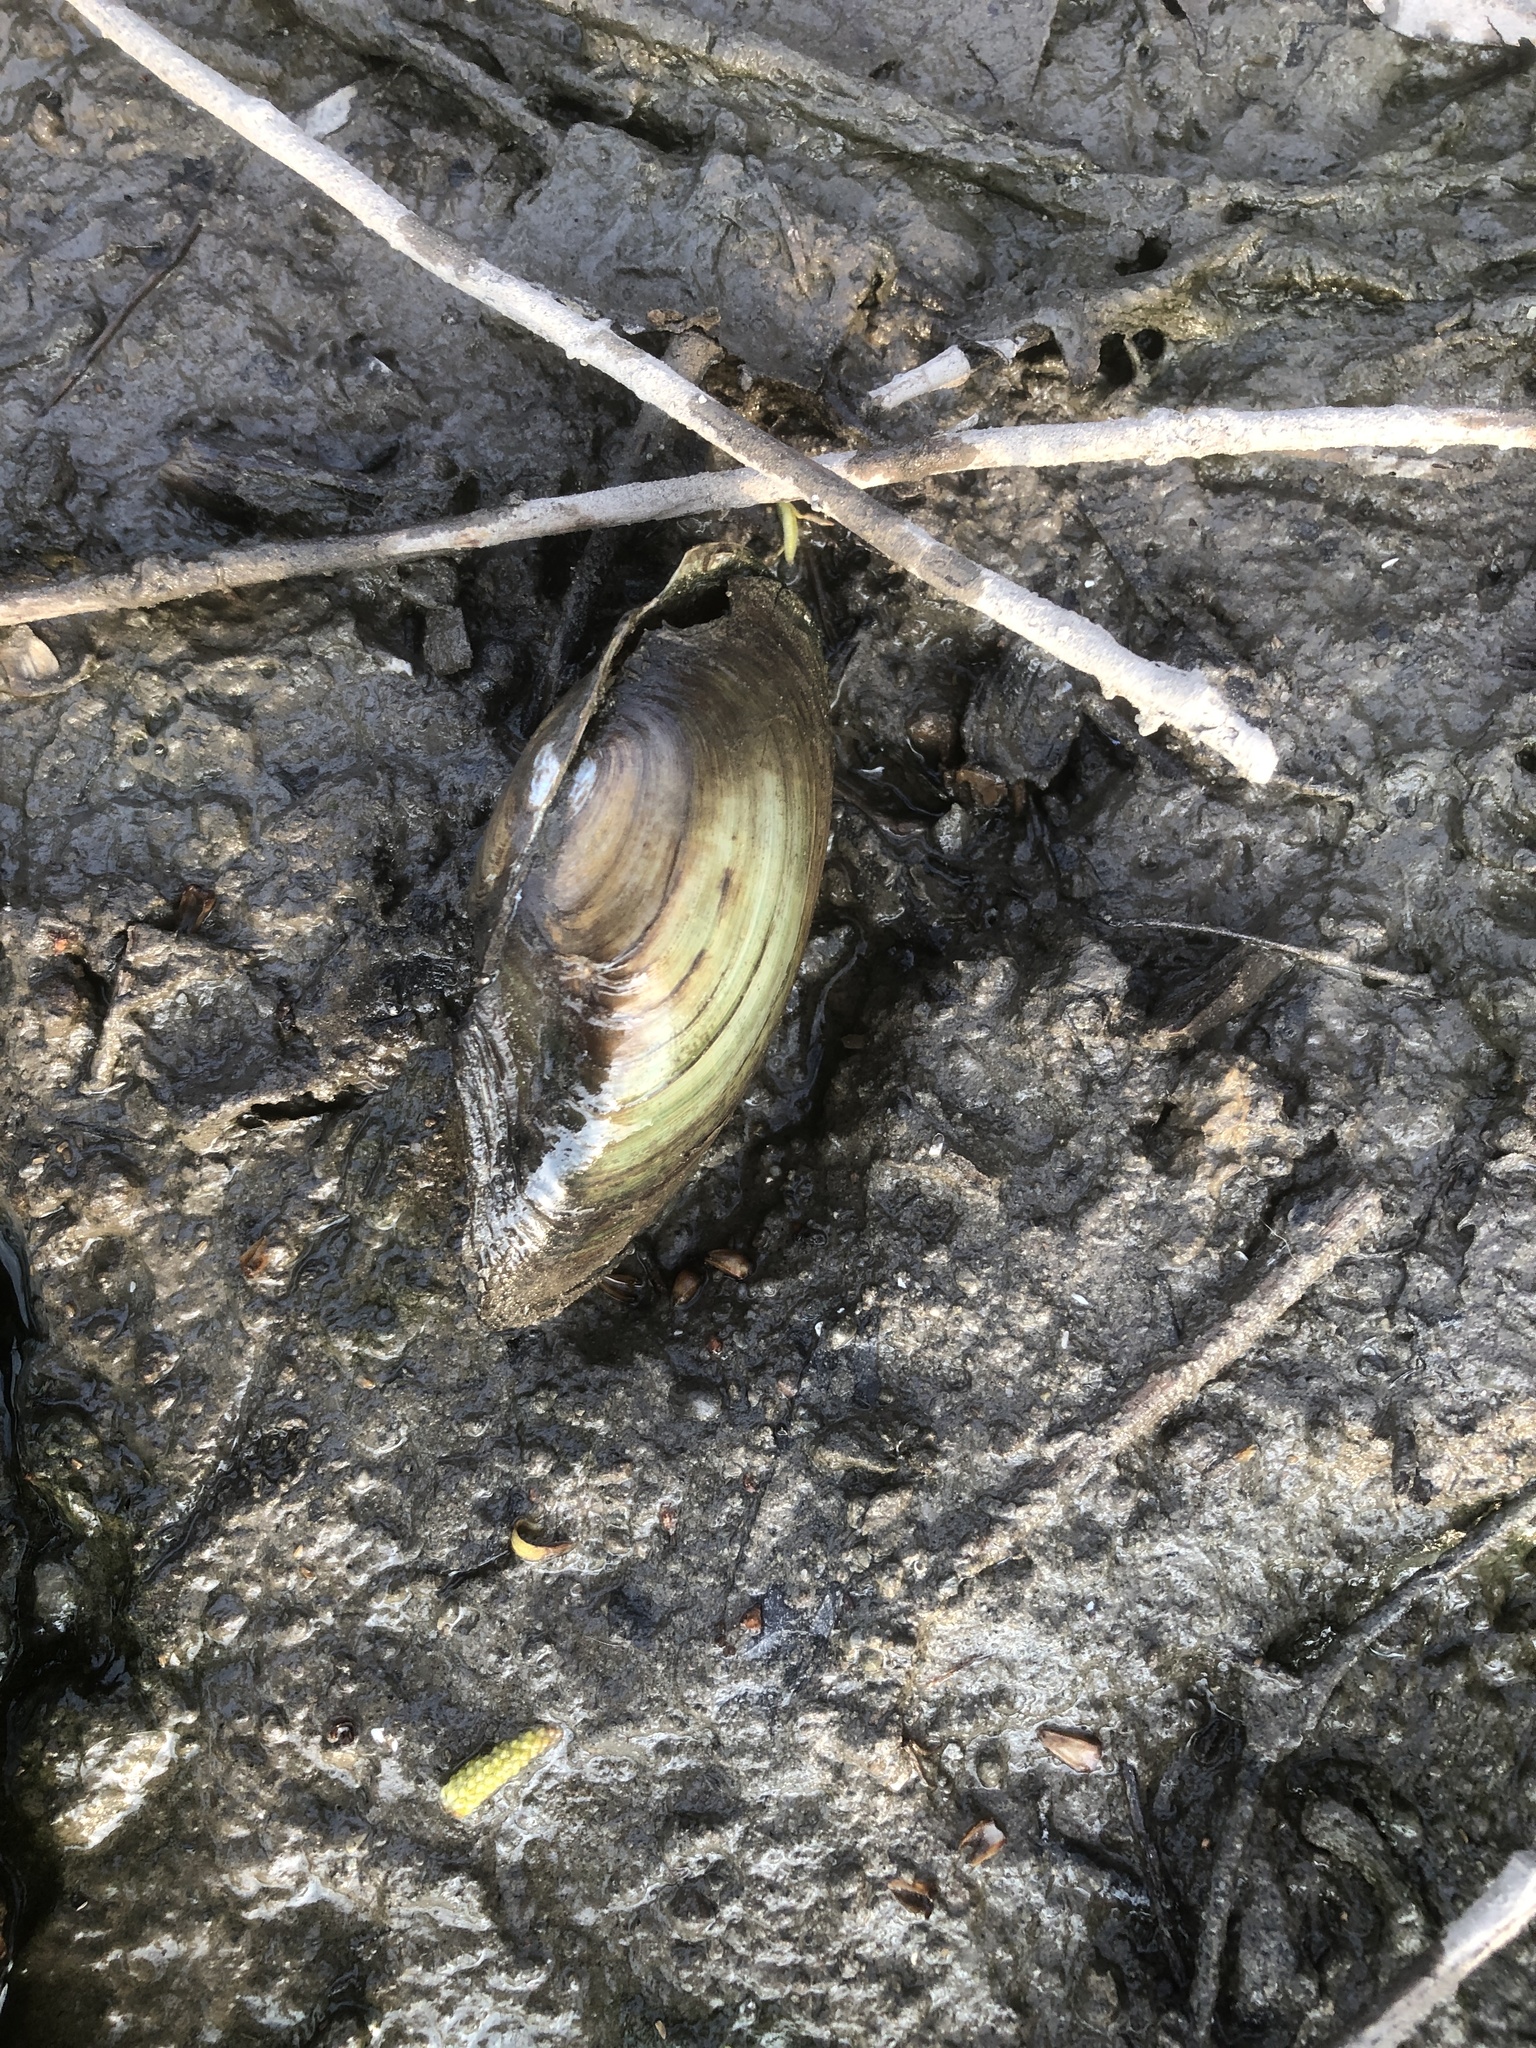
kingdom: Animalia
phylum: Mollusca
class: Bivalvia
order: Unionida
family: Unionidae
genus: Utterbackia
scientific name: Utterbackia imbecillis
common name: Paper pondshell
